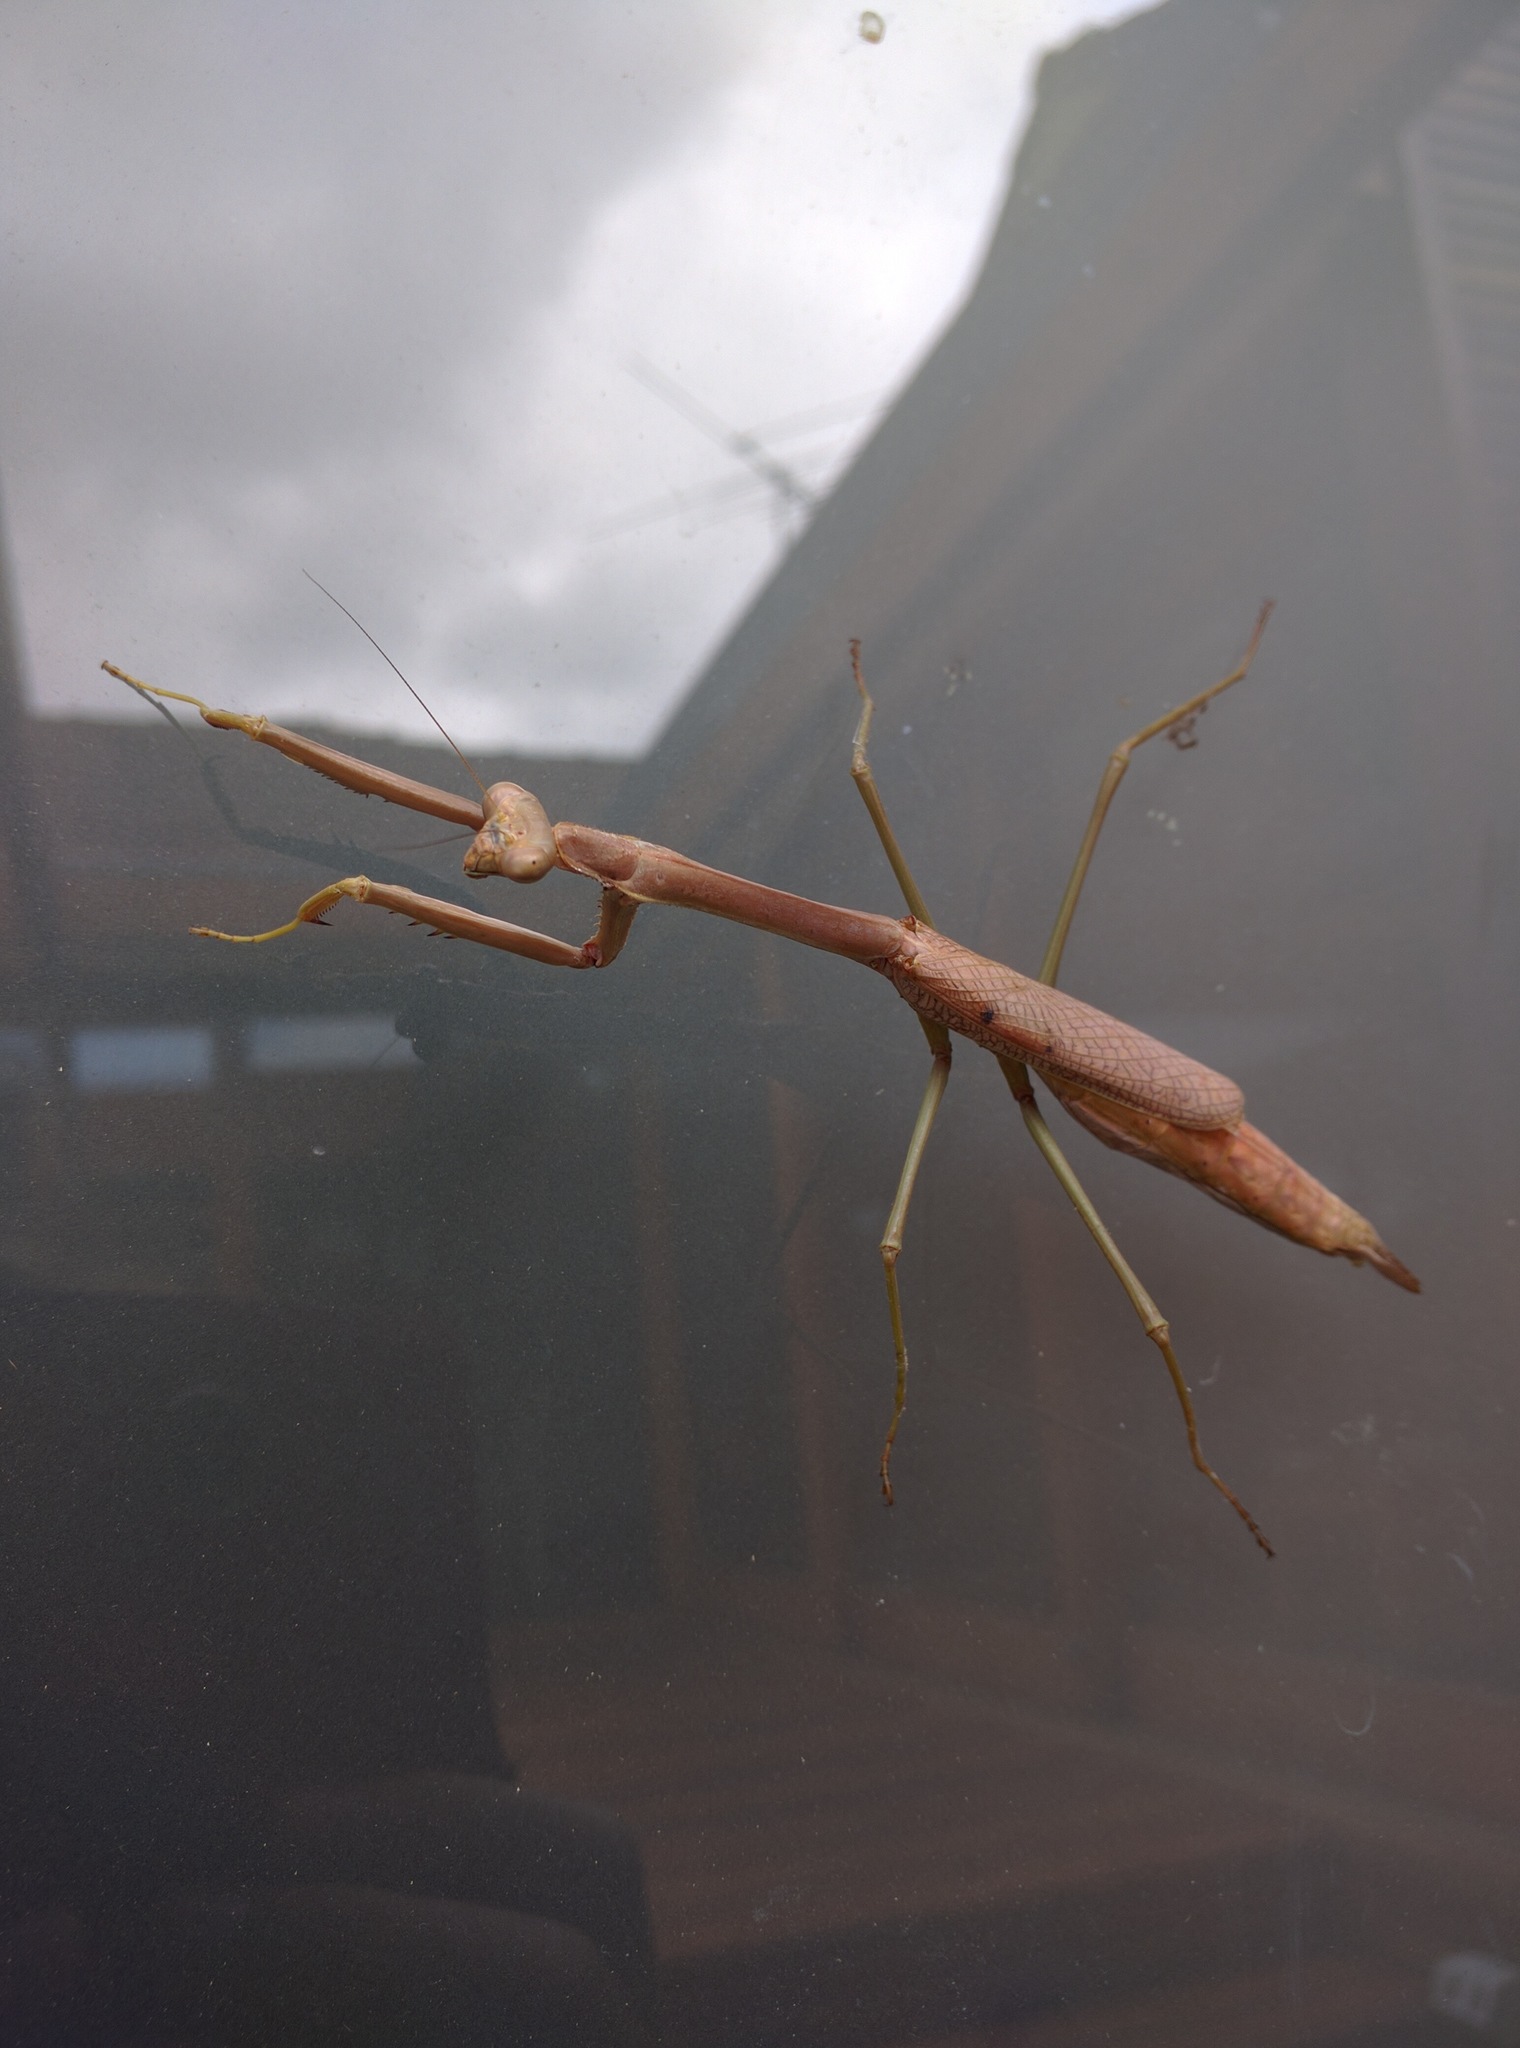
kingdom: Animalia
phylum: Arthropoda
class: Insecta
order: Mantodea
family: Mantidae
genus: Archimantis
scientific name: Archimantis latistyla
